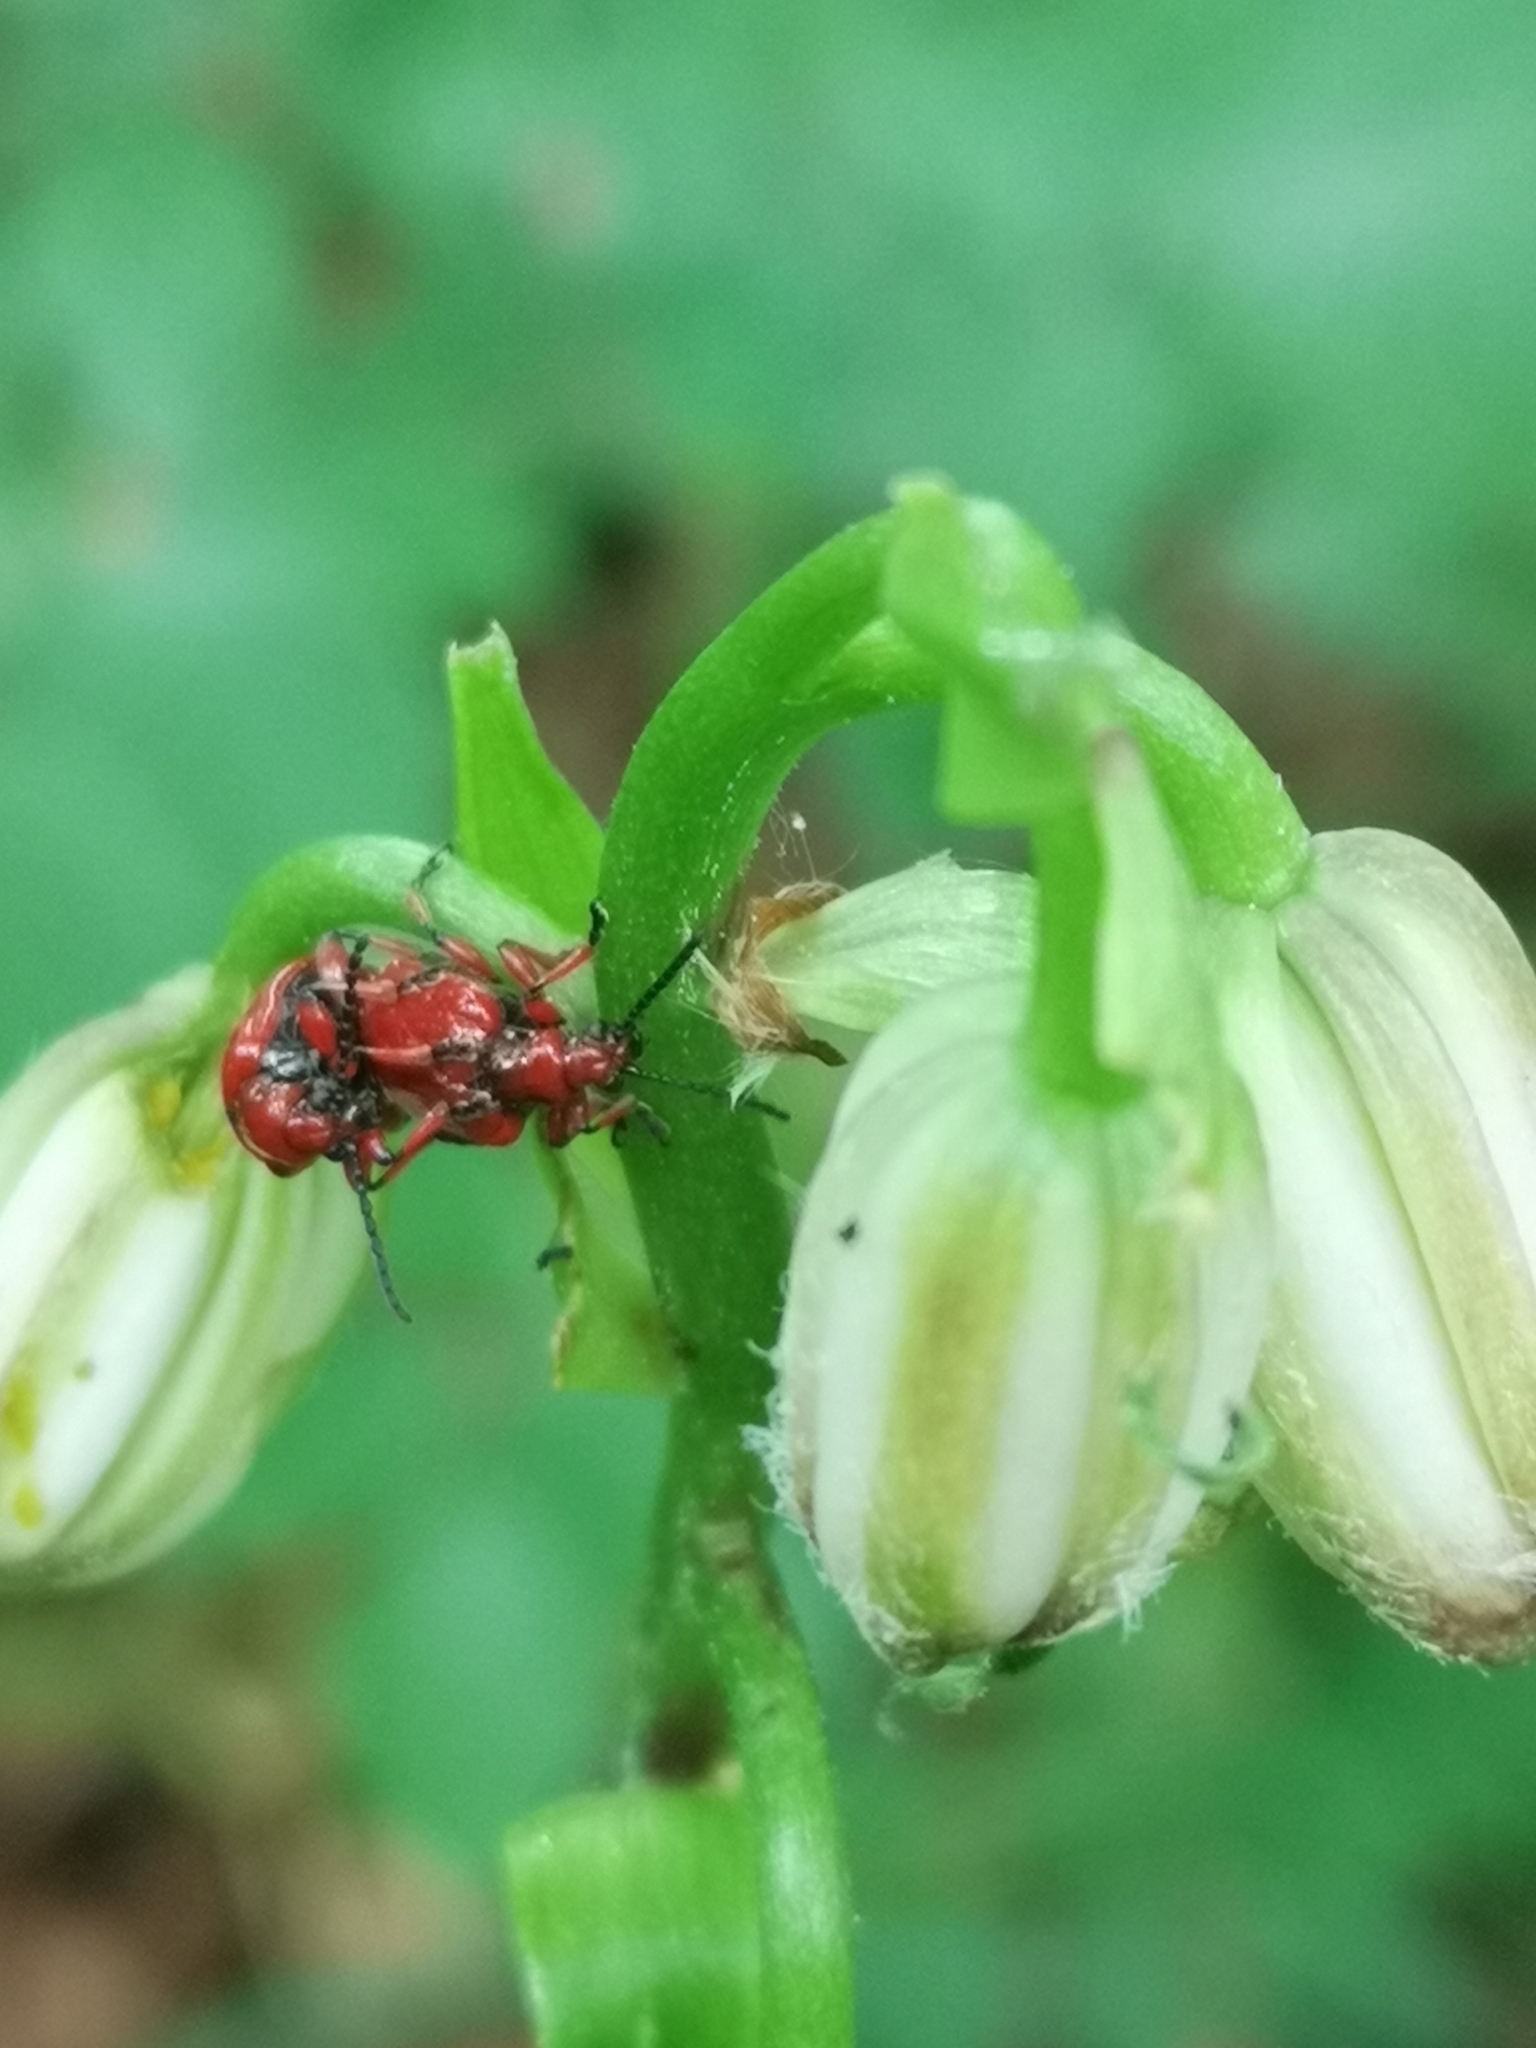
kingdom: Animalia
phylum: Arthropoda
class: Insecta
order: Coleoptera
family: Chrysomelidae
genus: Lilioceris
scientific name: Lilioceris merdigera
